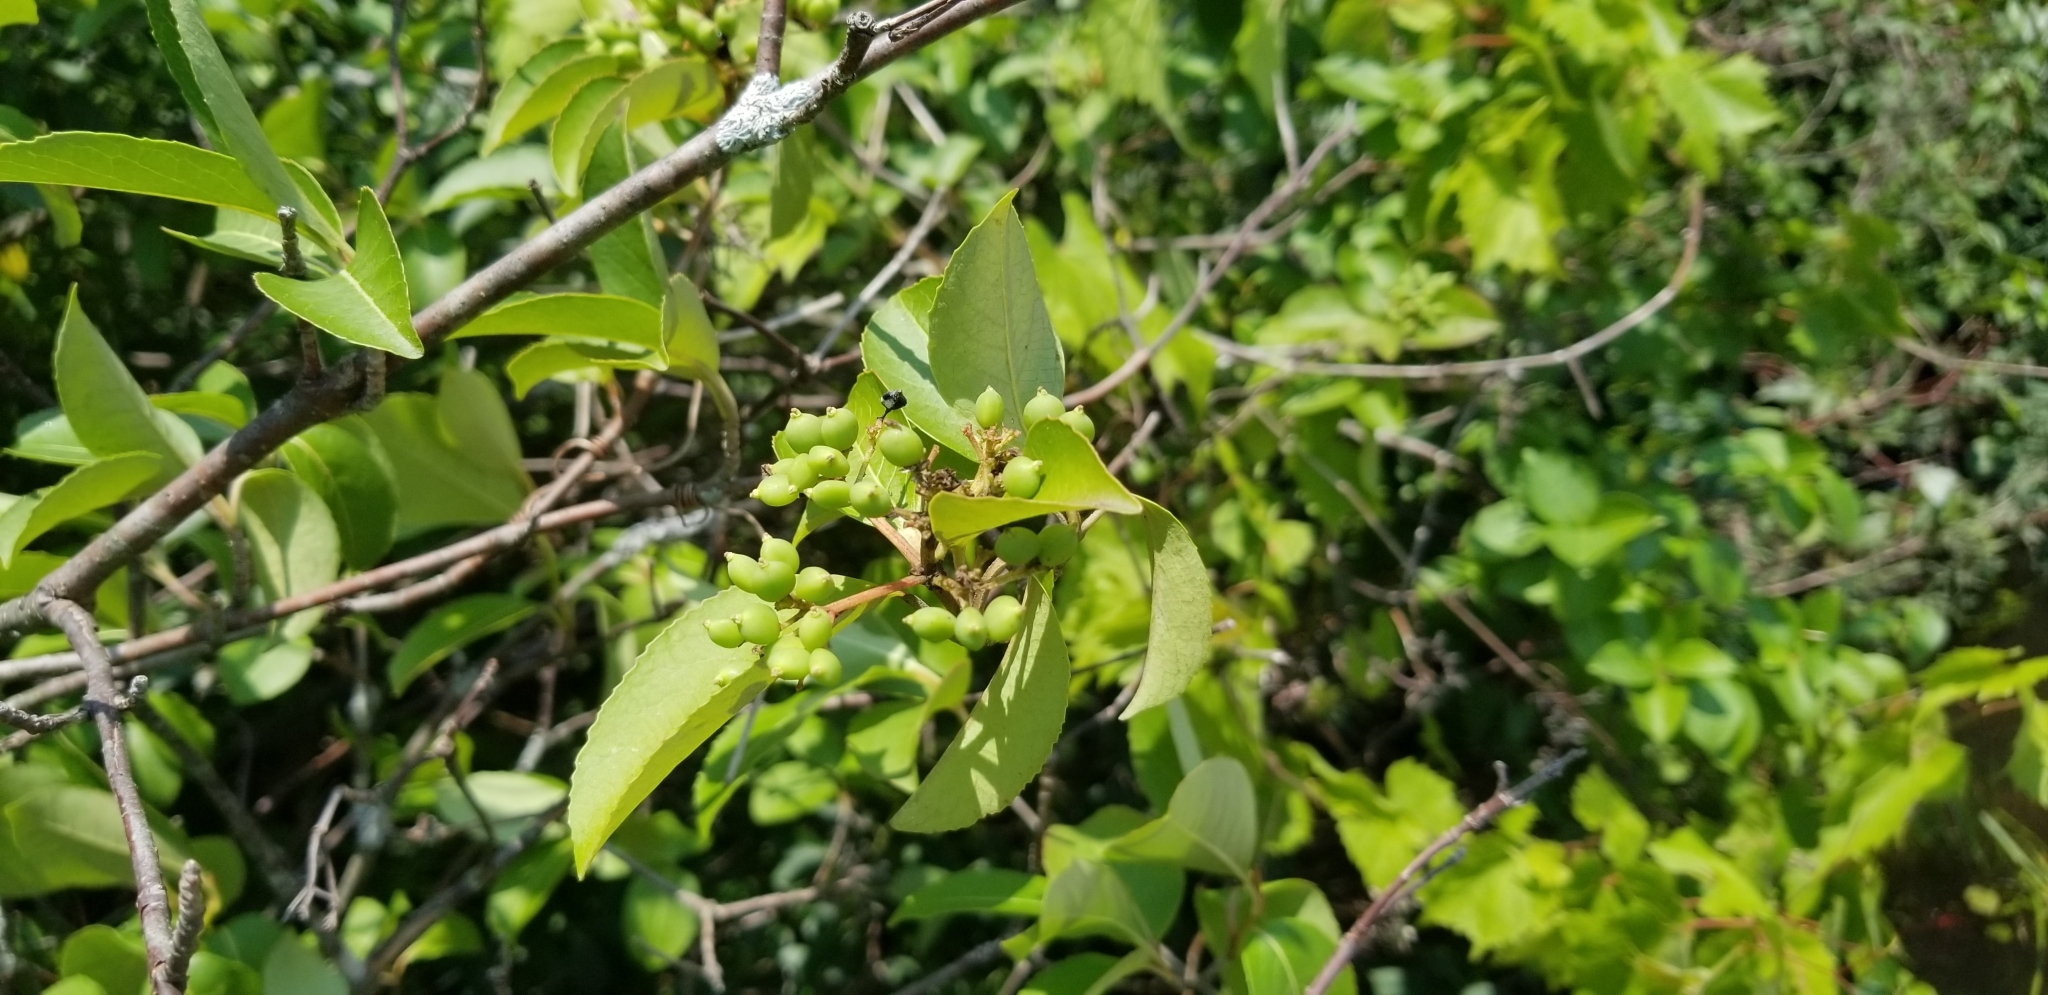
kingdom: Plantae
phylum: Tracheophyta
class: Magnoliopsida
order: Dipsacales
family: Viburnaceae
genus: Viburnum
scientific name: Viburnum cassinoides
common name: Swamp haw
